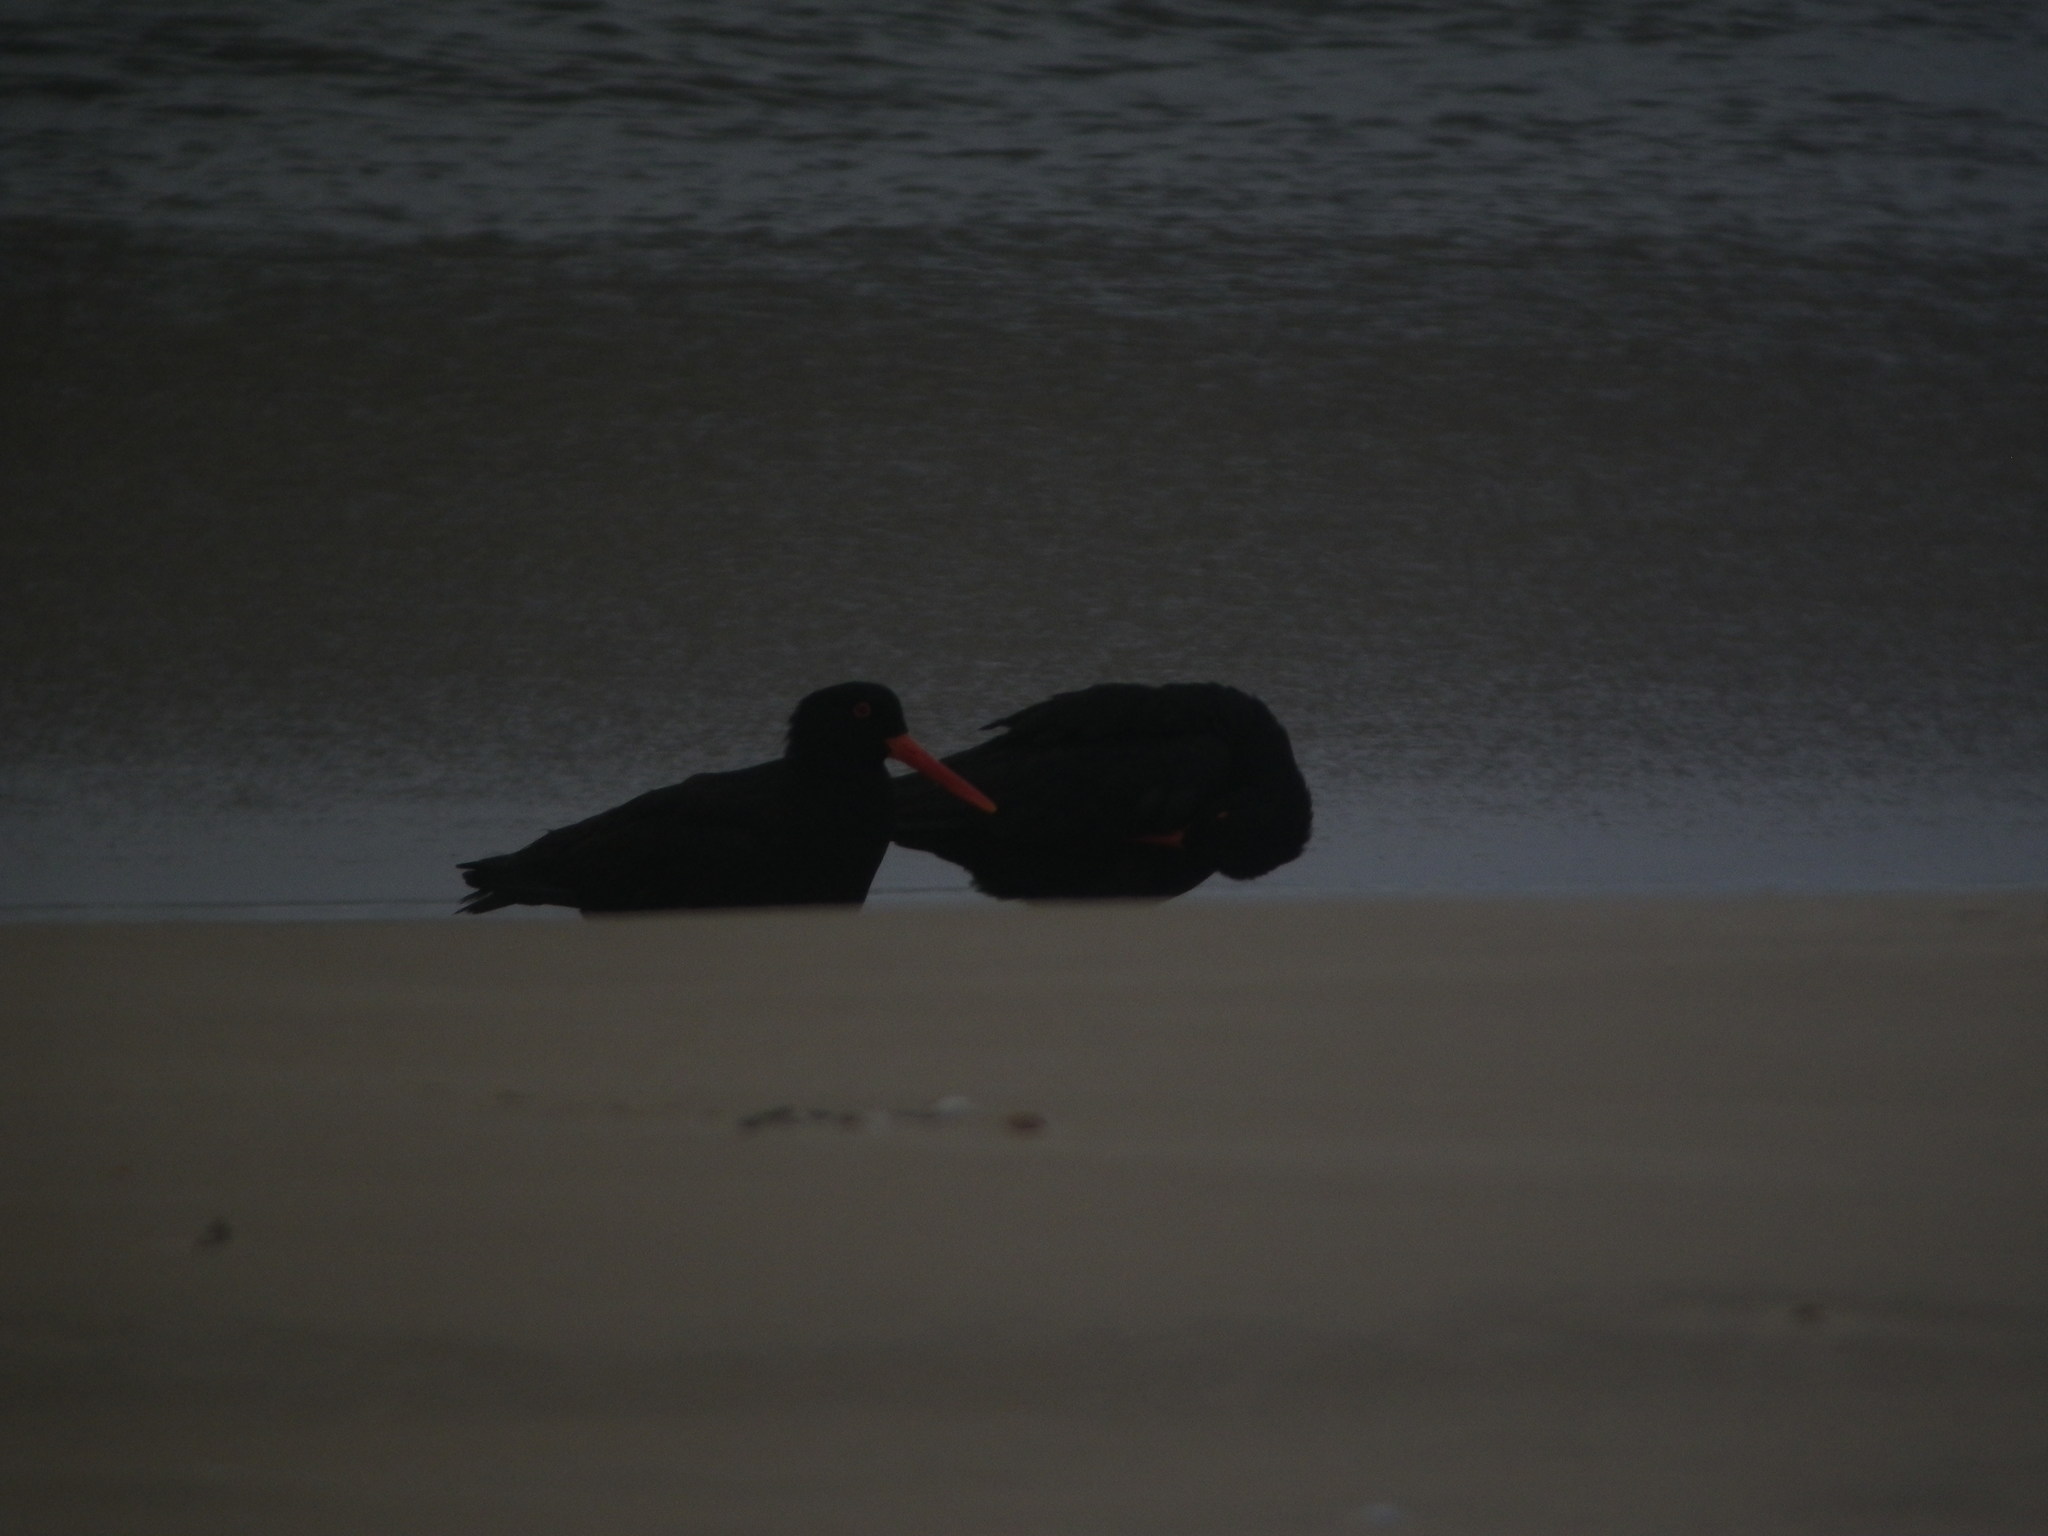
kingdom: Animalia
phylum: Chordata
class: Aves
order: Charadriiformes
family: Haematopodidae
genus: Haematopus
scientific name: Haematopus fuliginosus
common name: Sooty oystercatcher
